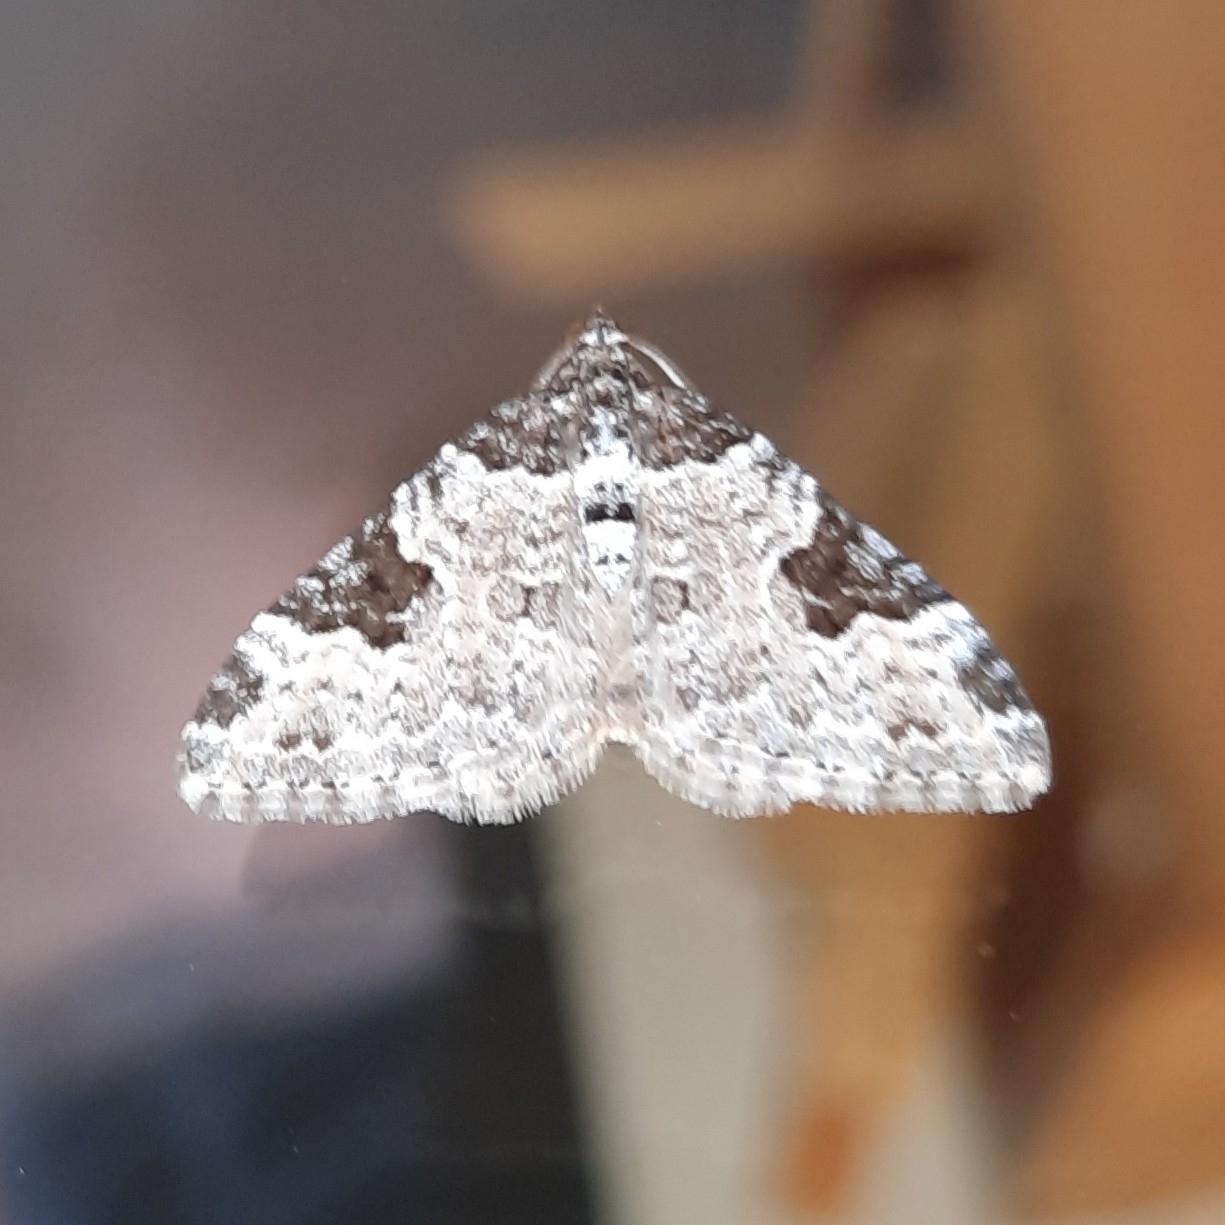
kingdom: Animalia
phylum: Arthropoda
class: Insecta
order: Lepidoptera
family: Geometridae
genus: Xanthorhoe
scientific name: Xanthorhoe fluctuata
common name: Garden carpet
